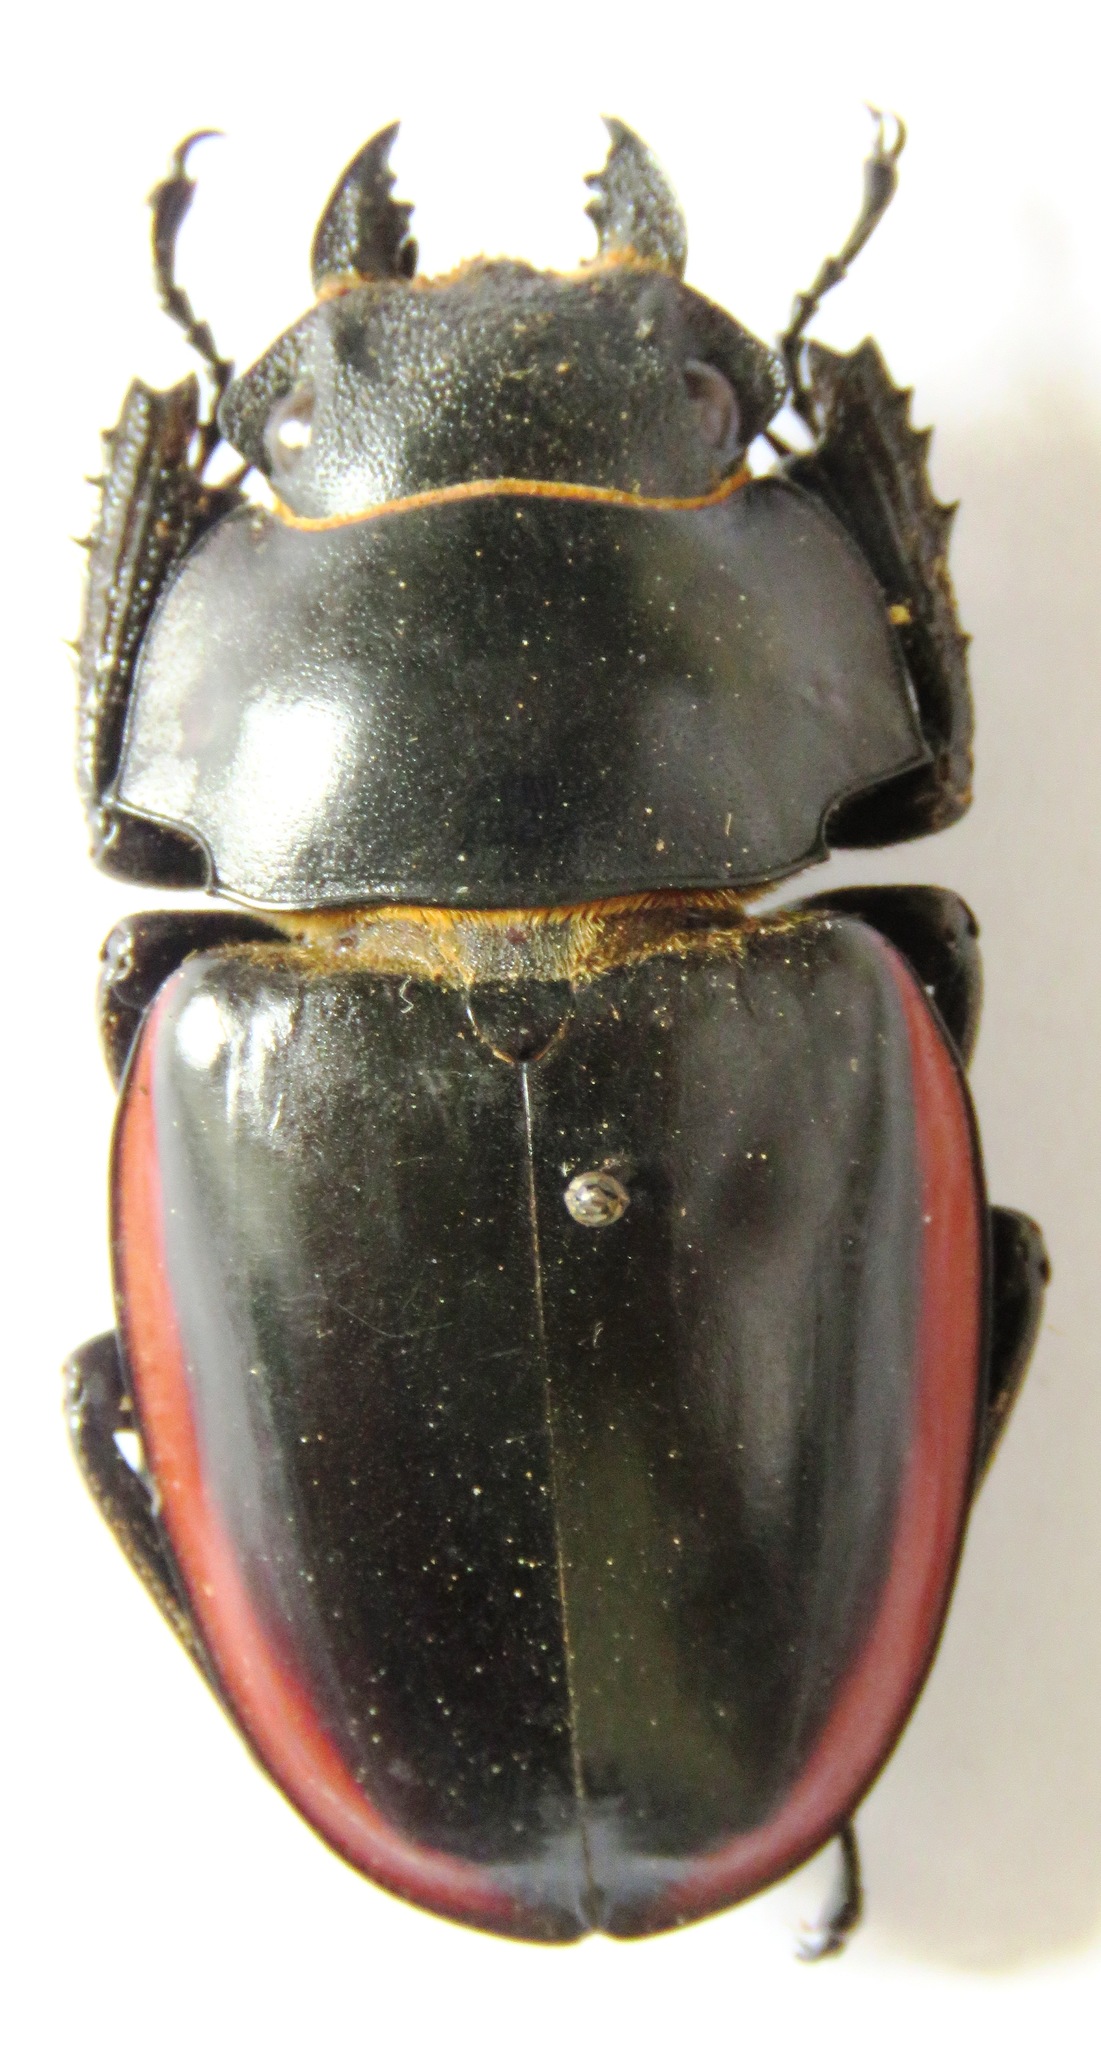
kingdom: Animalia
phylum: Arthropoda
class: Insecta
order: Coleoptera
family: Lucanidae
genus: Odontolabis
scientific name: Odontolabis cuvera
